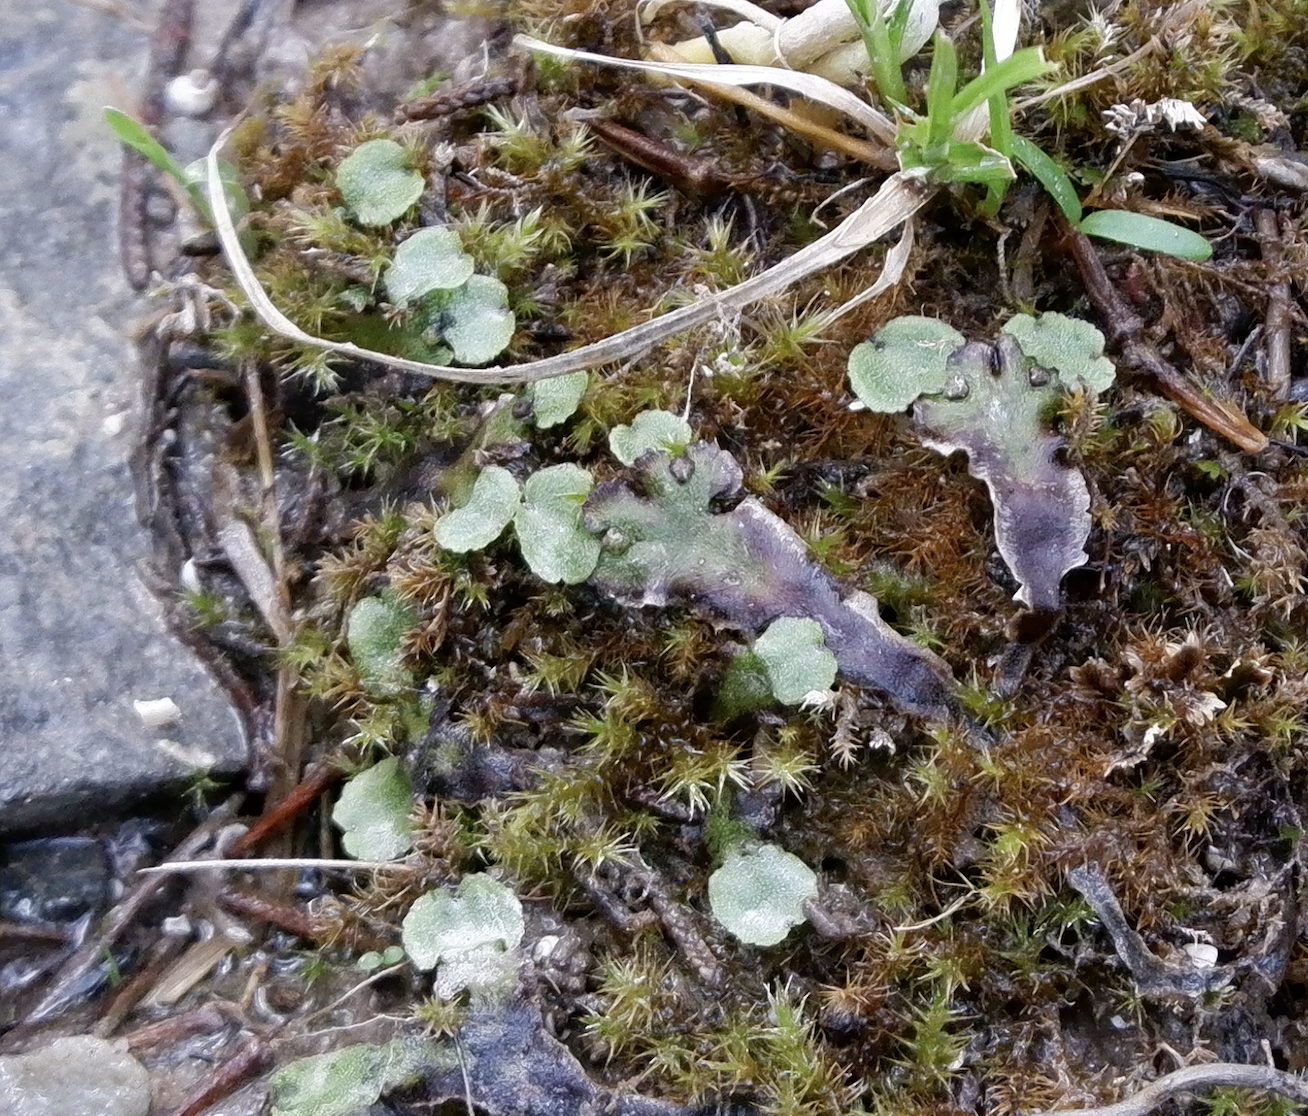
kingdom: Plantae
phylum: Marchantiophyta
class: Marchantiopsida
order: Marchantiales
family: Marchantiaceae
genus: Marchantia
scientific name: Marchantia quadrata
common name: Narrow mushroom-headed liverwort
